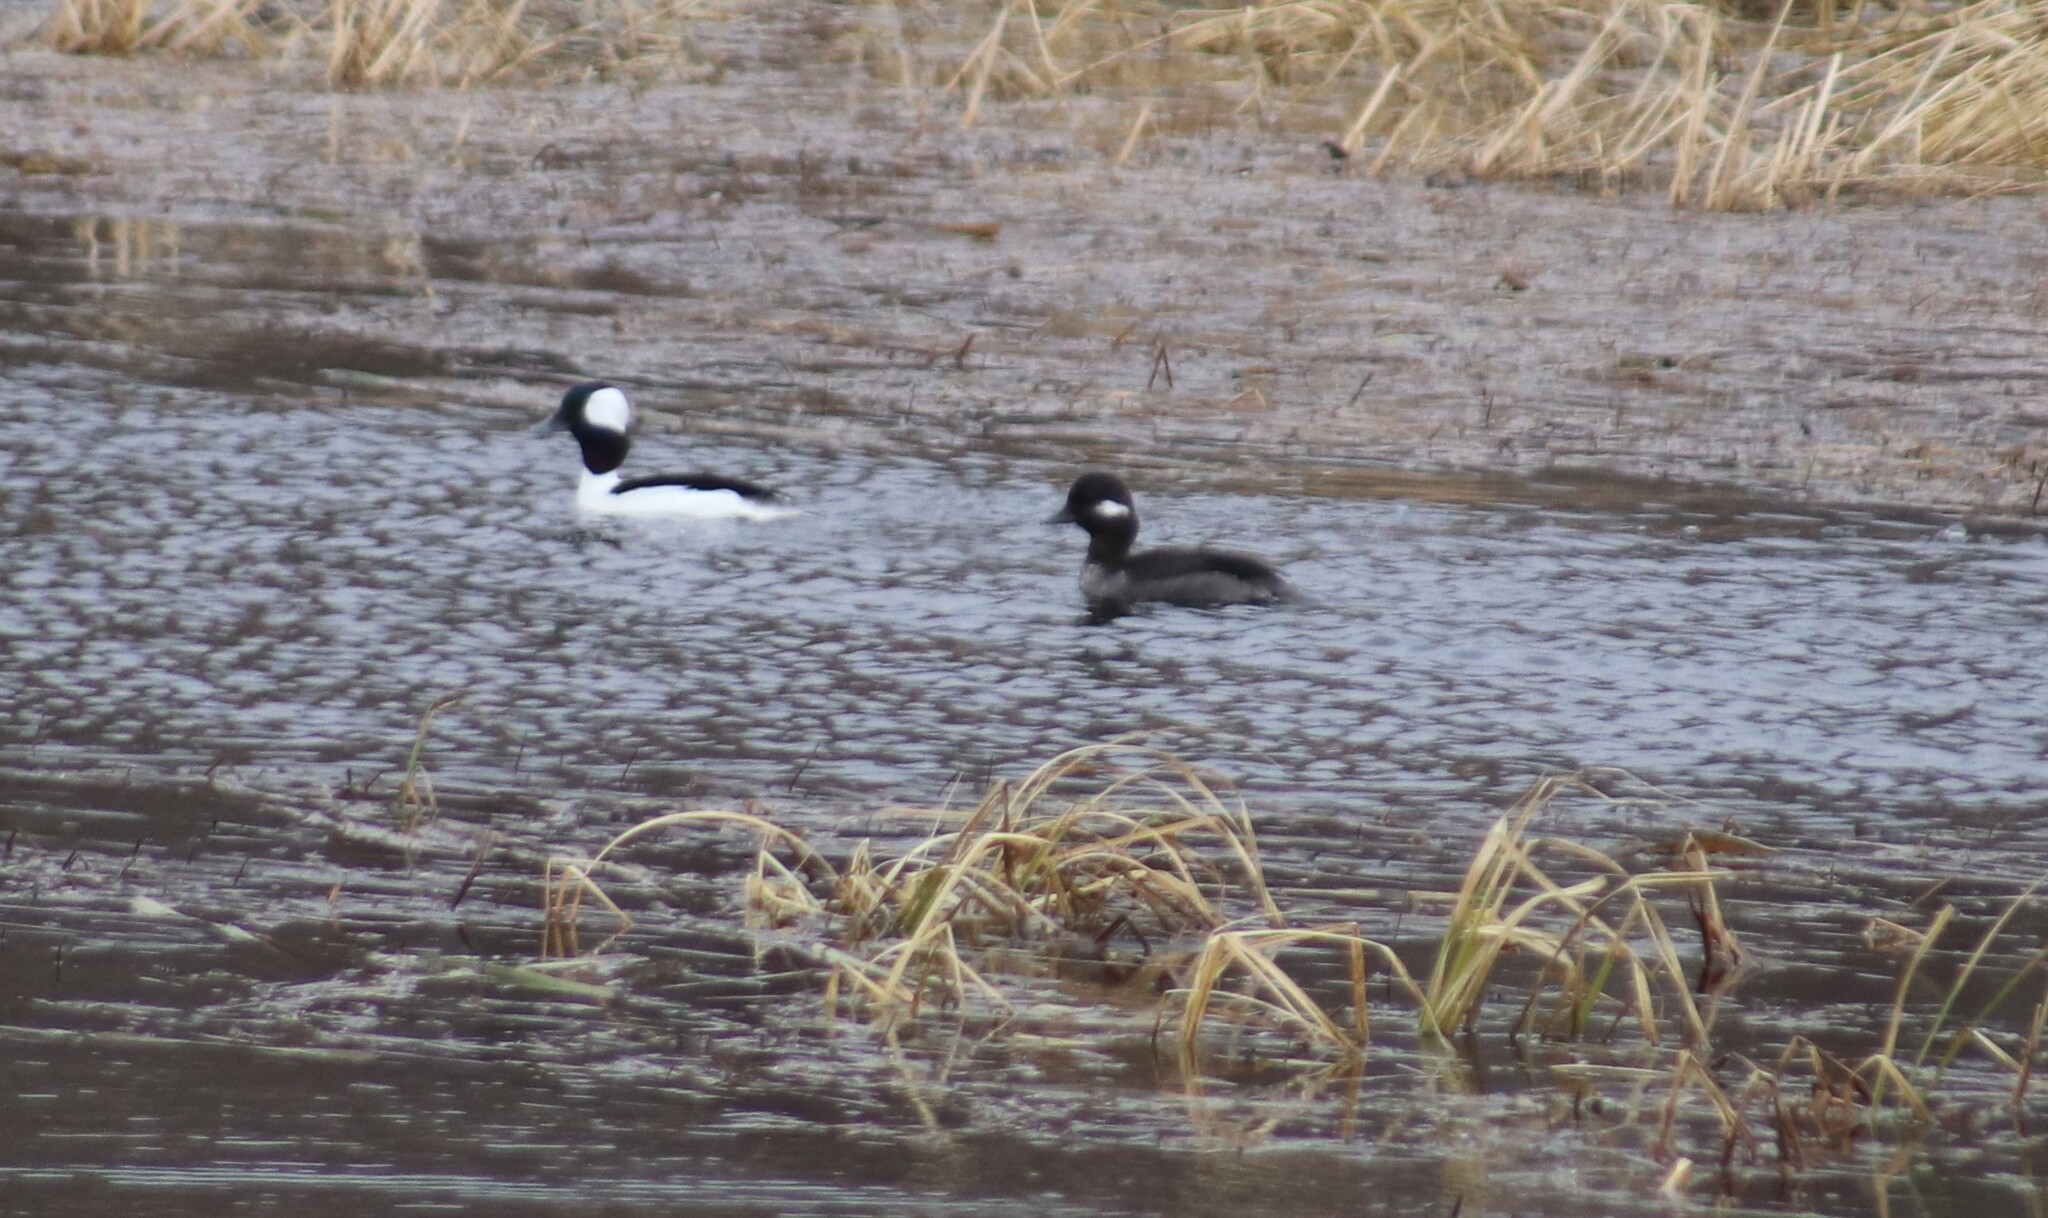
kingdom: Animalia
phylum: Chordata
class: Aves
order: Anseriformes
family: Anatidae
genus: Bucephala
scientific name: Bucephala albeola
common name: Bufflehead
